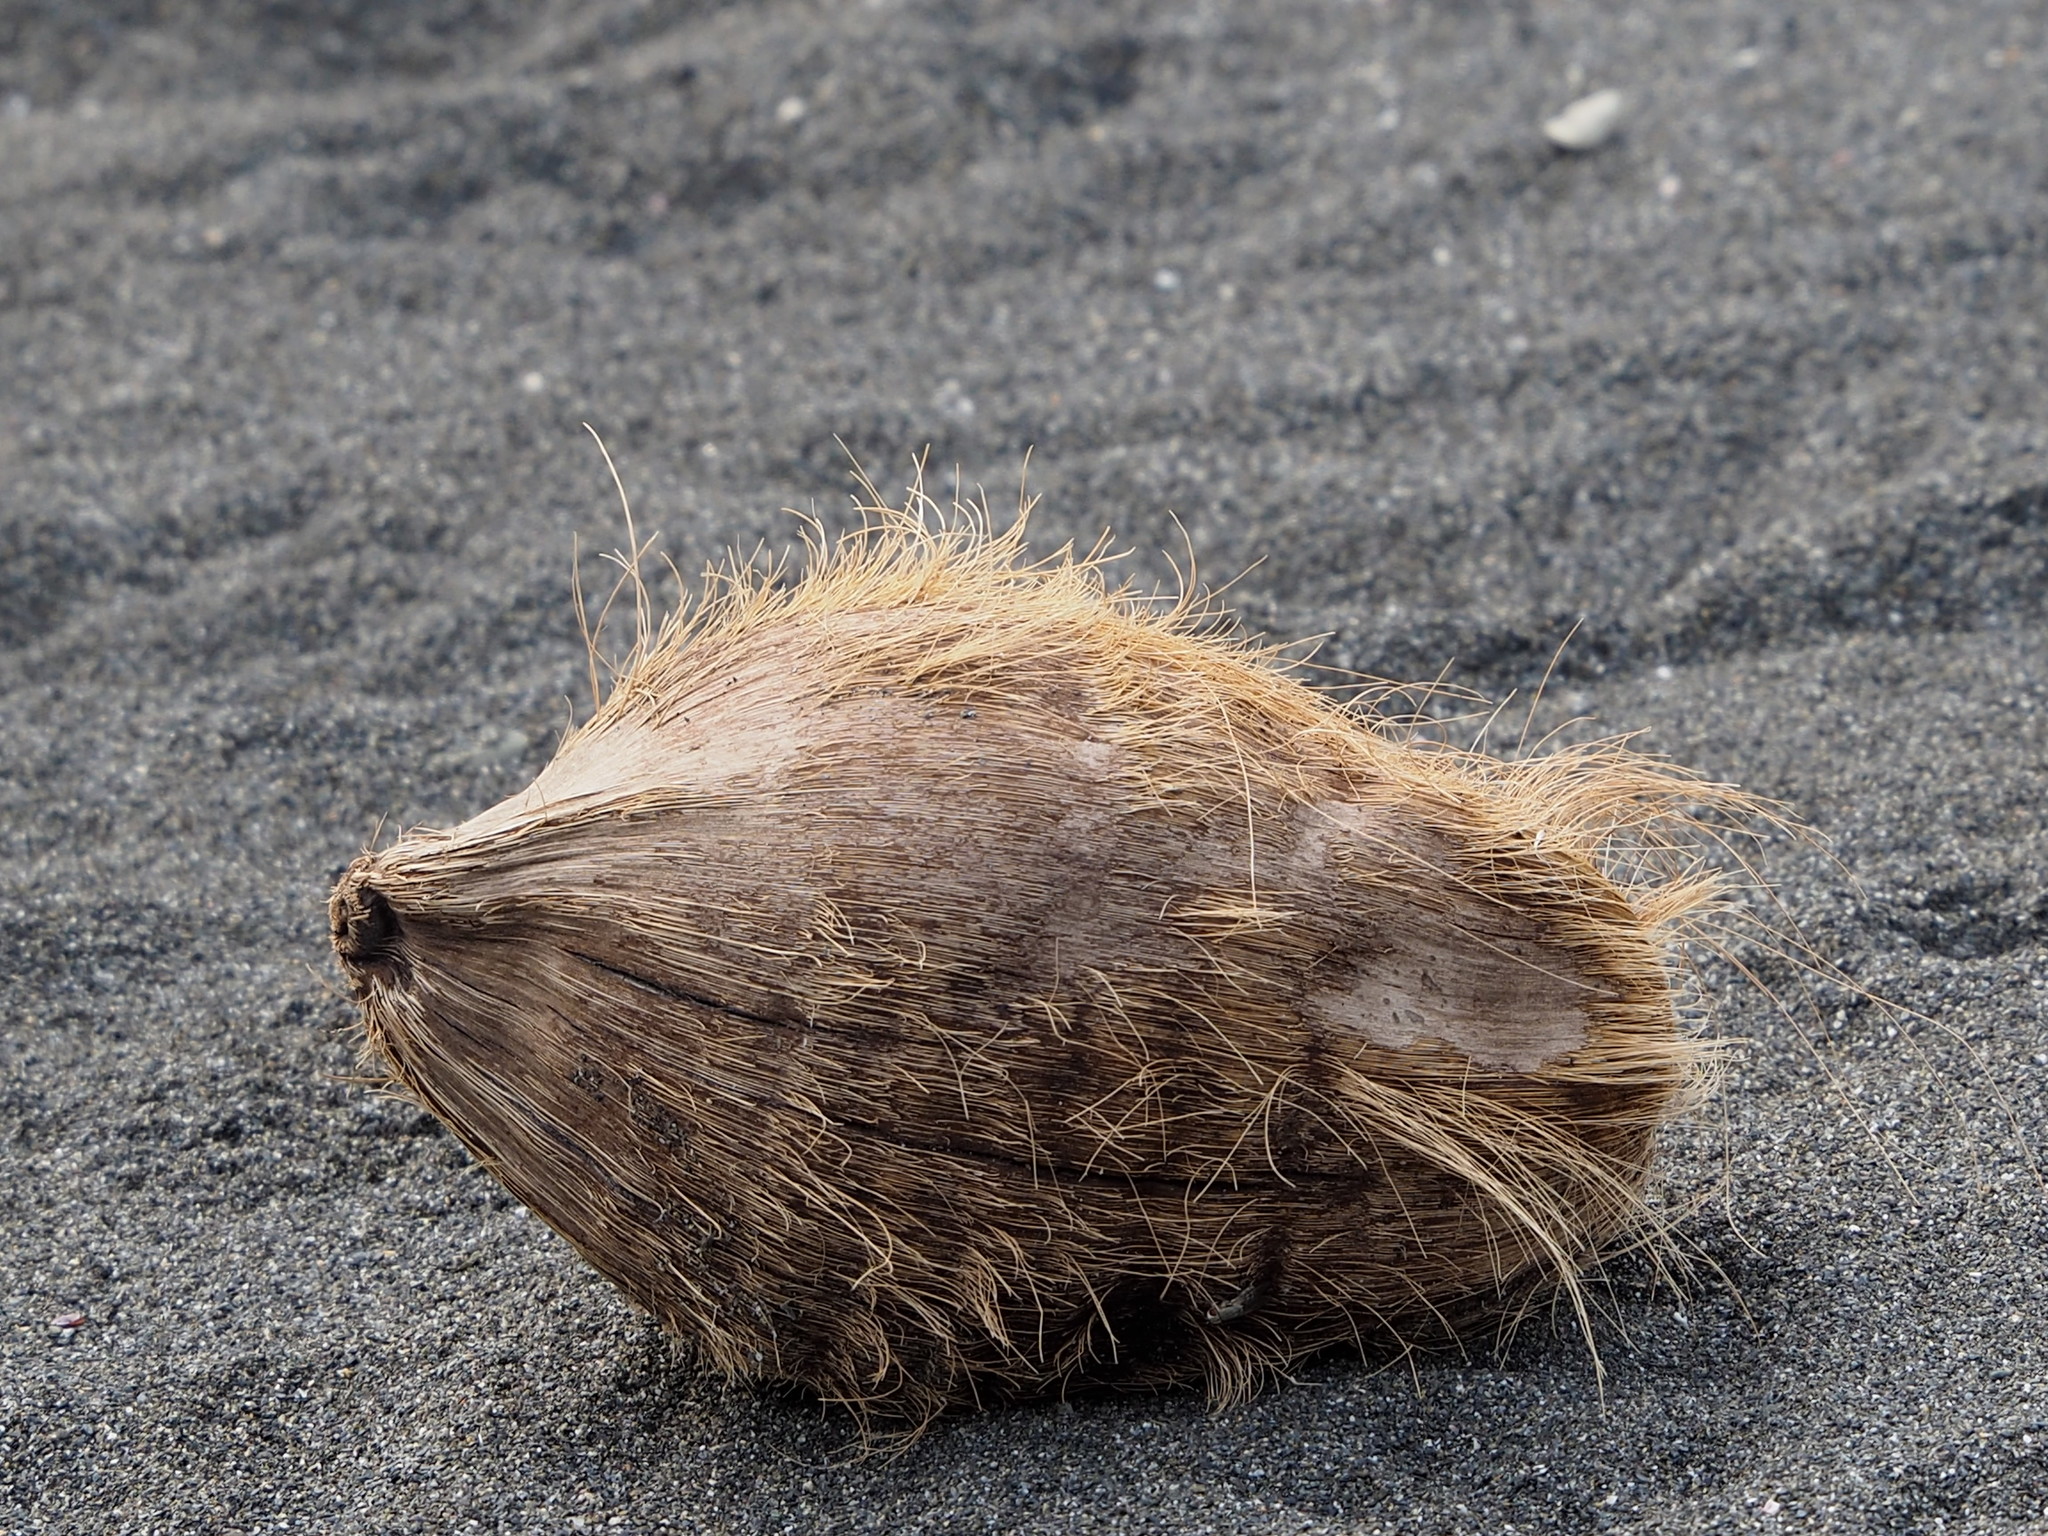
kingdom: Plantae
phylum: Tracheophyta
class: Liliopsida
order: Arecales
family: Arecaceae
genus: Cocos
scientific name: Cocos nucifera
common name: Coconut palm
